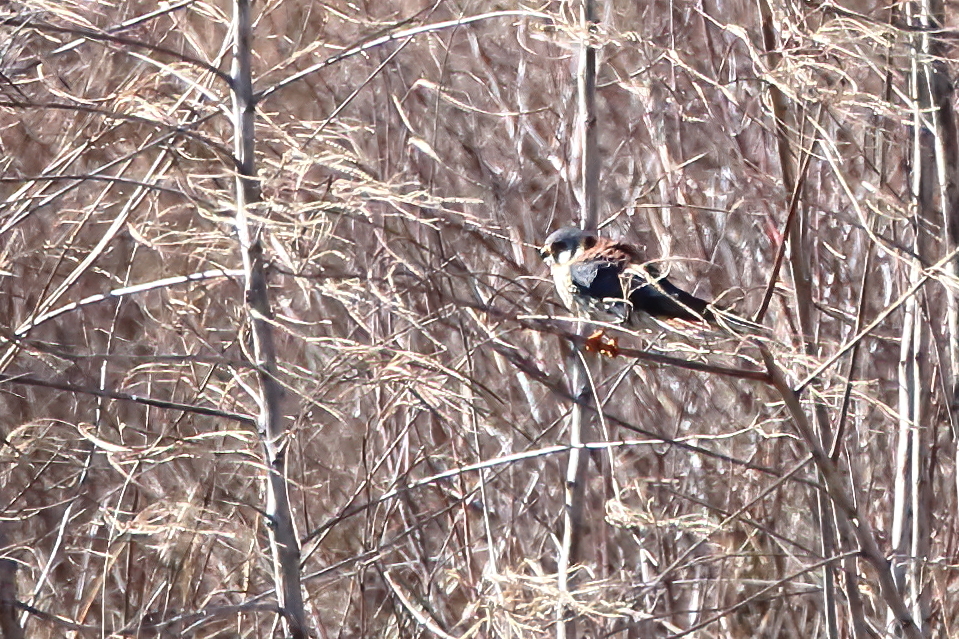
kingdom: Animalia
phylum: Chordata
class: Aves
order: Falconiformes
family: Falconidae
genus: Falco
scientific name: Falco sparverius
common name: American kestrel
